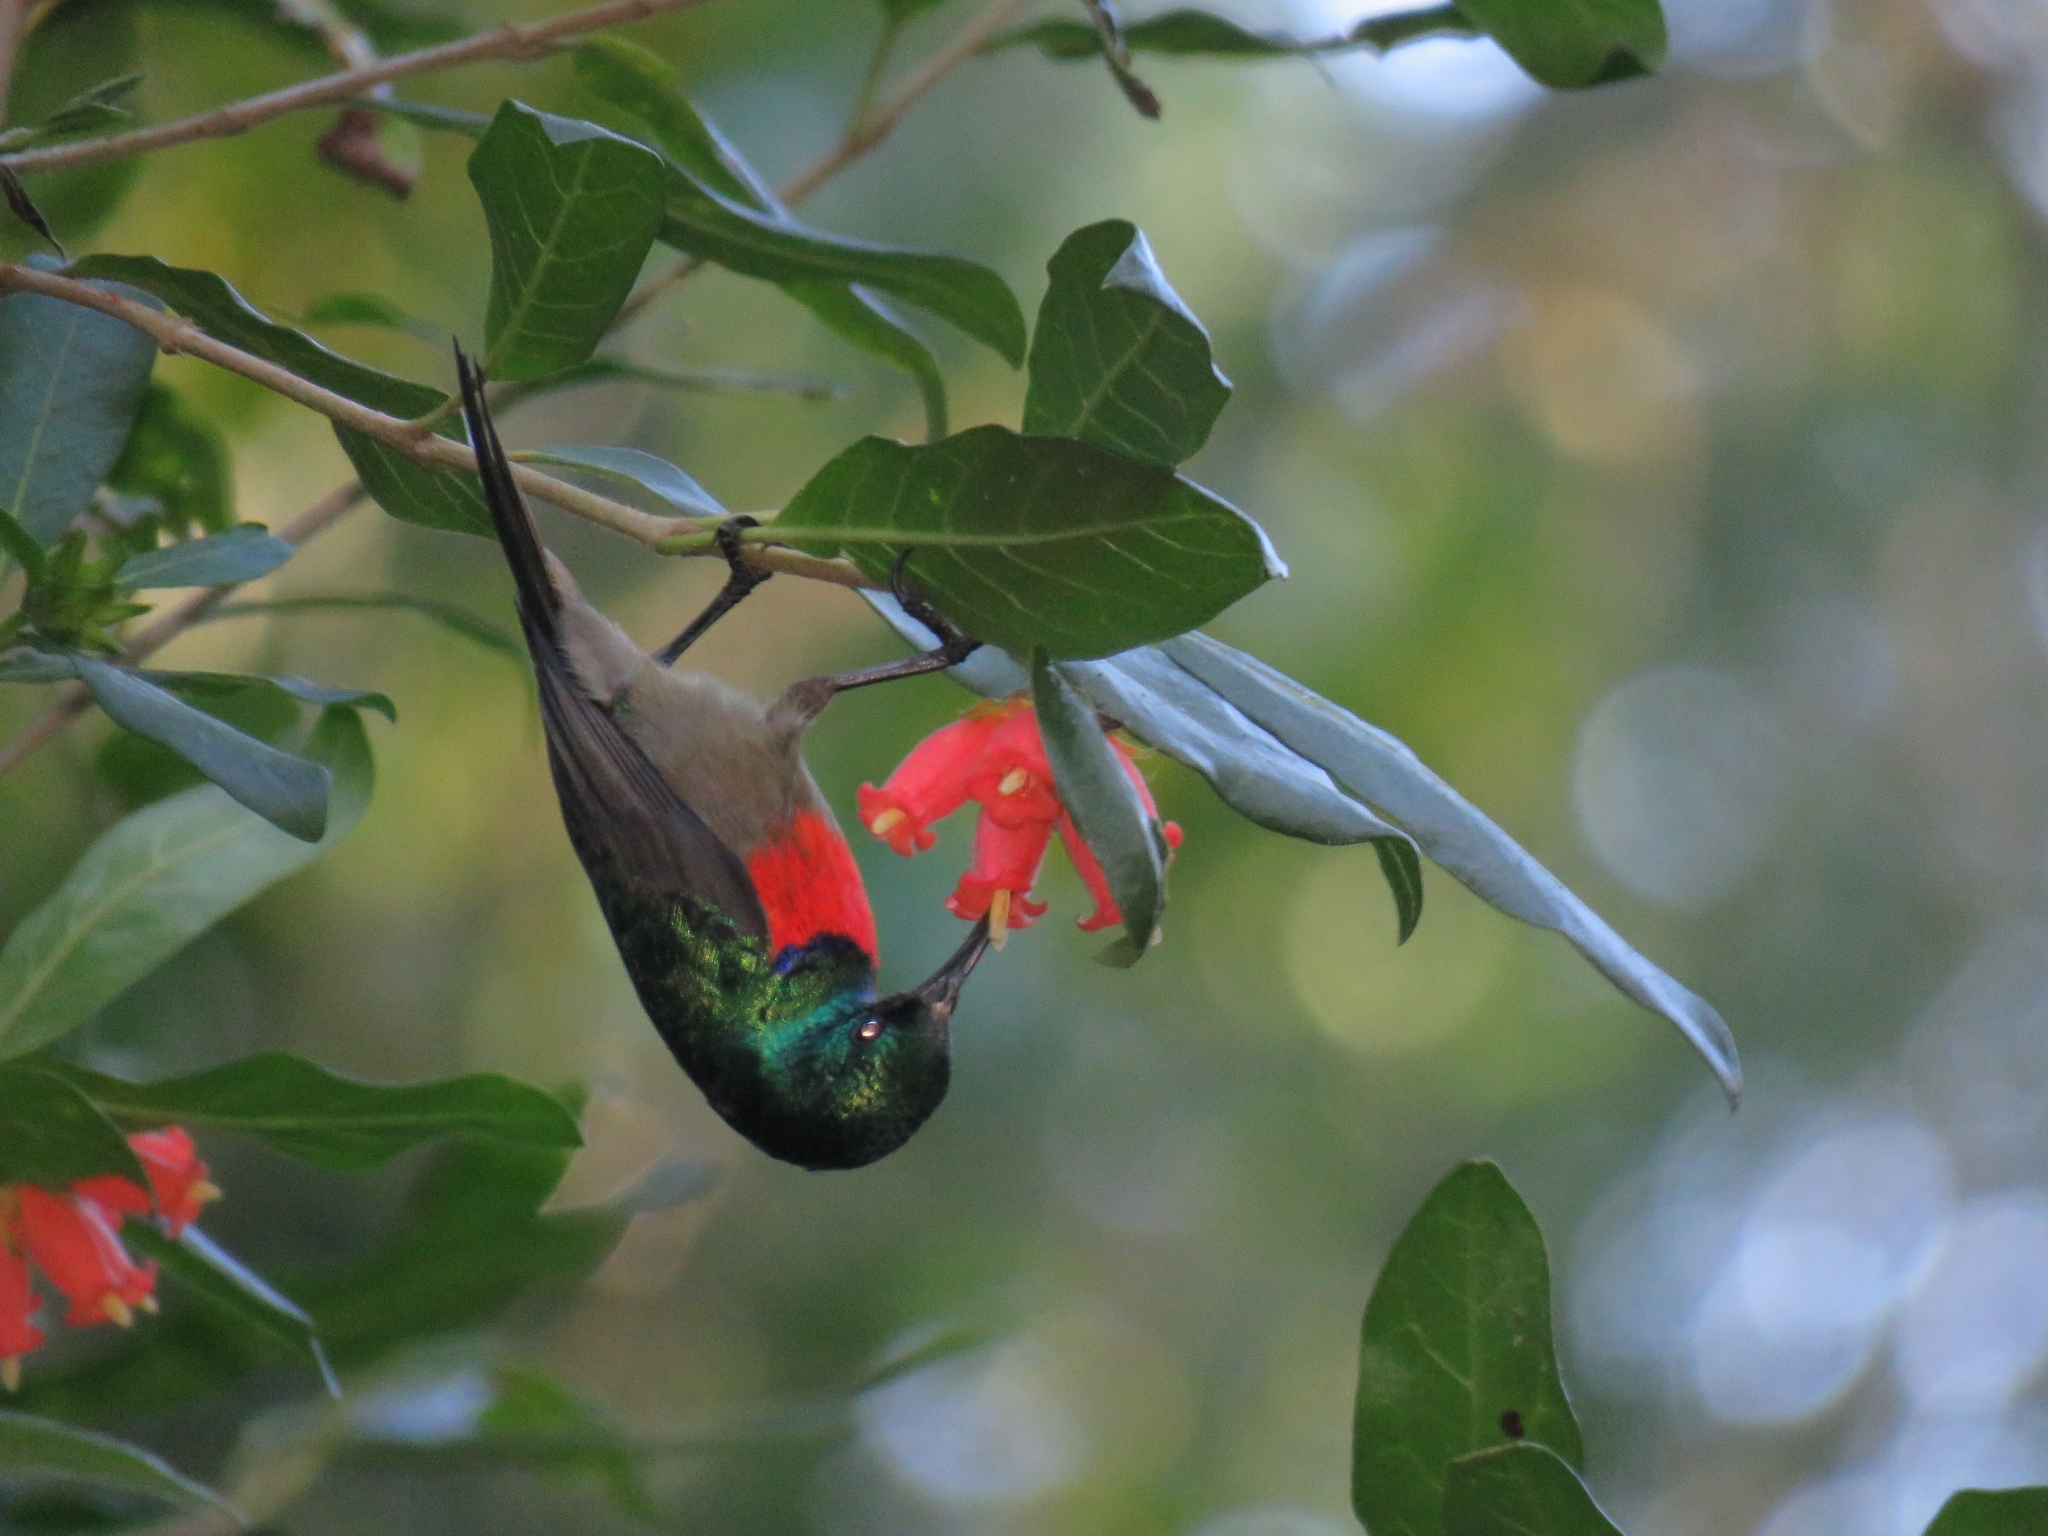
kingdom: Animalia
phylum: Chordata
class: Aves
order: Passeriformes
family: Nectariniidae
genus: Cinnyris
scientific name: Cinnyris afer
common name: Greater double-collared sunbird
